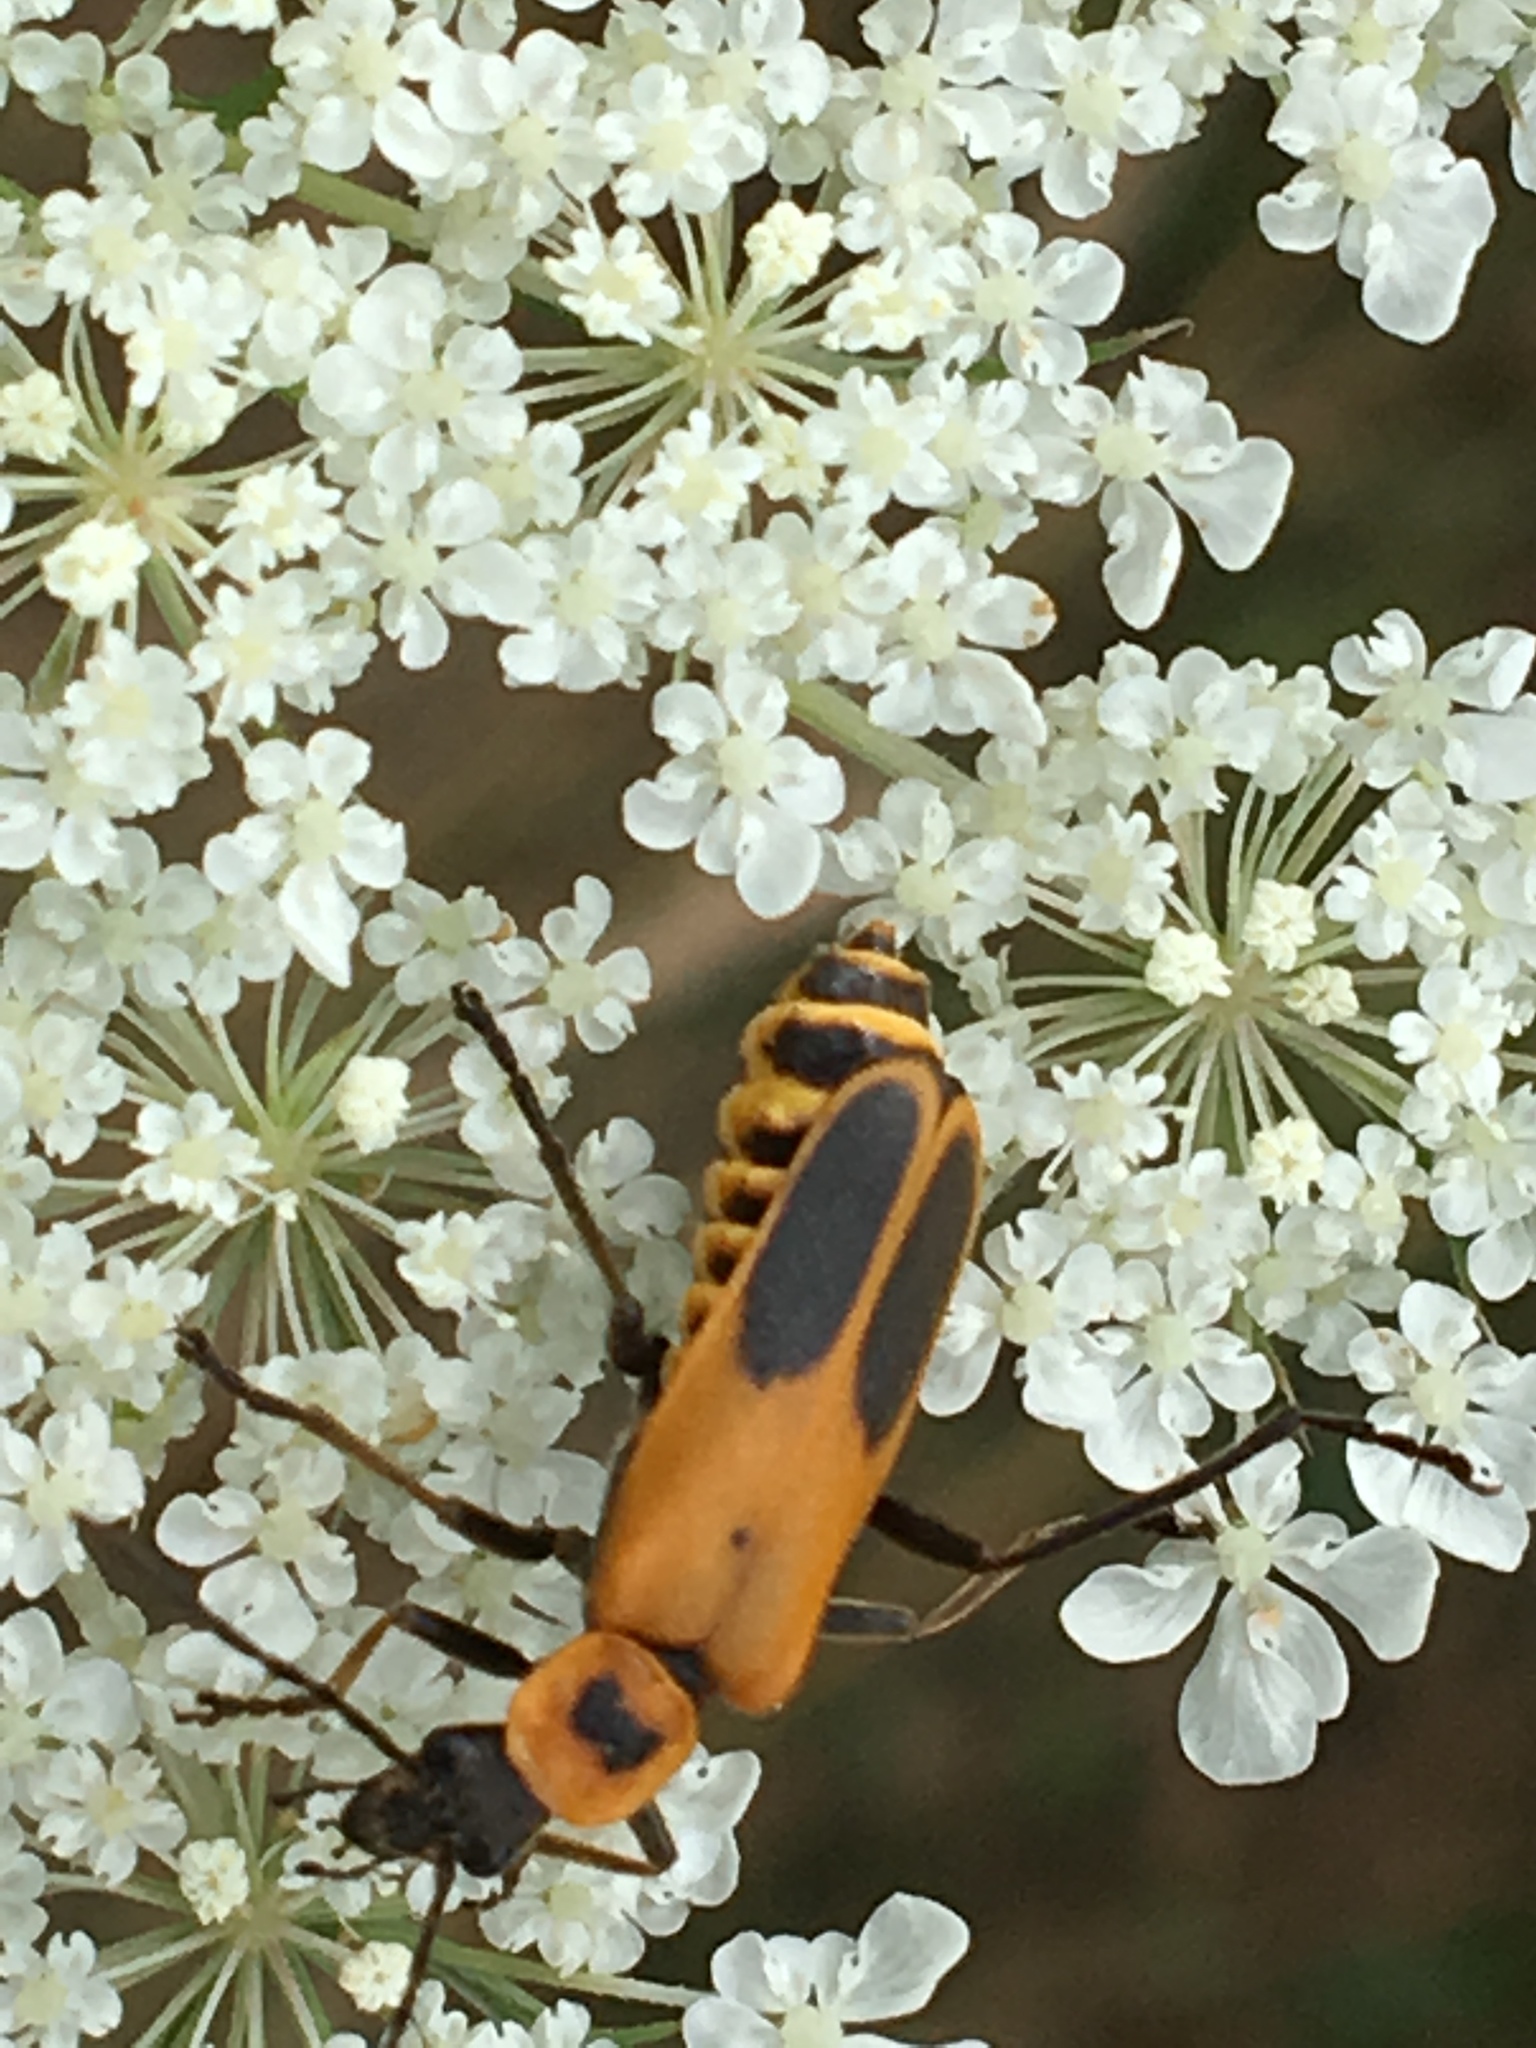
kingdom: Animalia
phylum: Arthropoda
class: Insecta
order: Coleoptera
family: Cantharidae
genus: Chauliognathus
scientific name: Chauliognathus pensylvanicus
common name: Goldenrod soldier beetle
